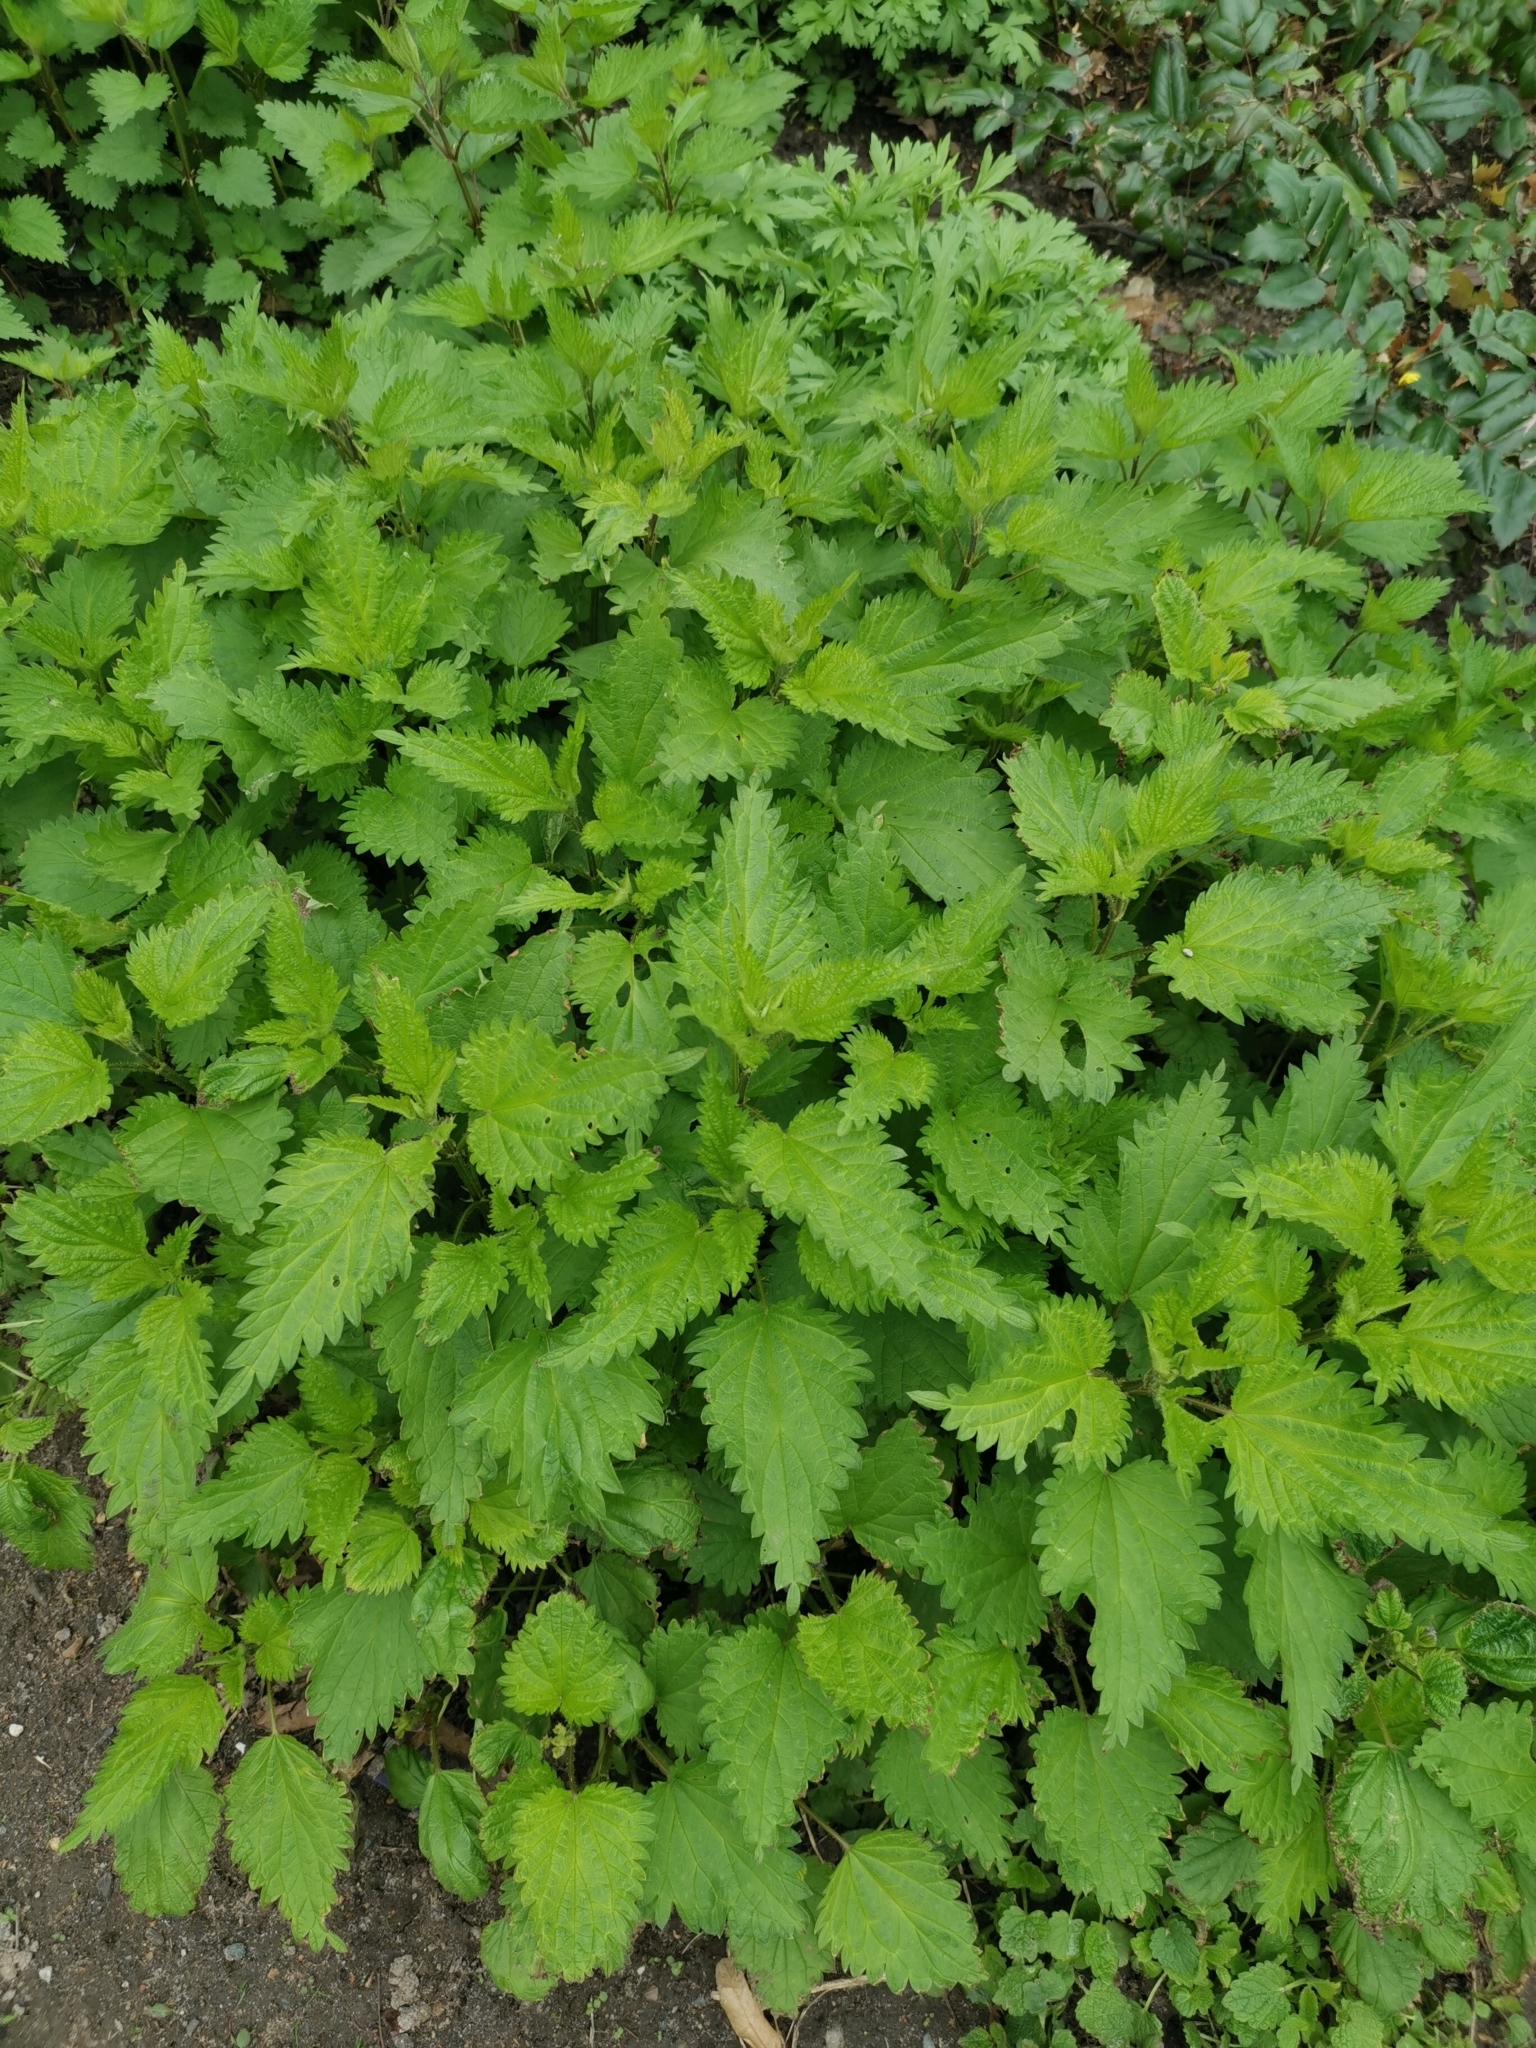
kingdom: Plantae
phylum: Tracheophyta
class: Magnoliopsida
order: Rosales
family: Urticaceae
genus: Urtica
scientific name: Urtica dioica
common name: Common nettle
